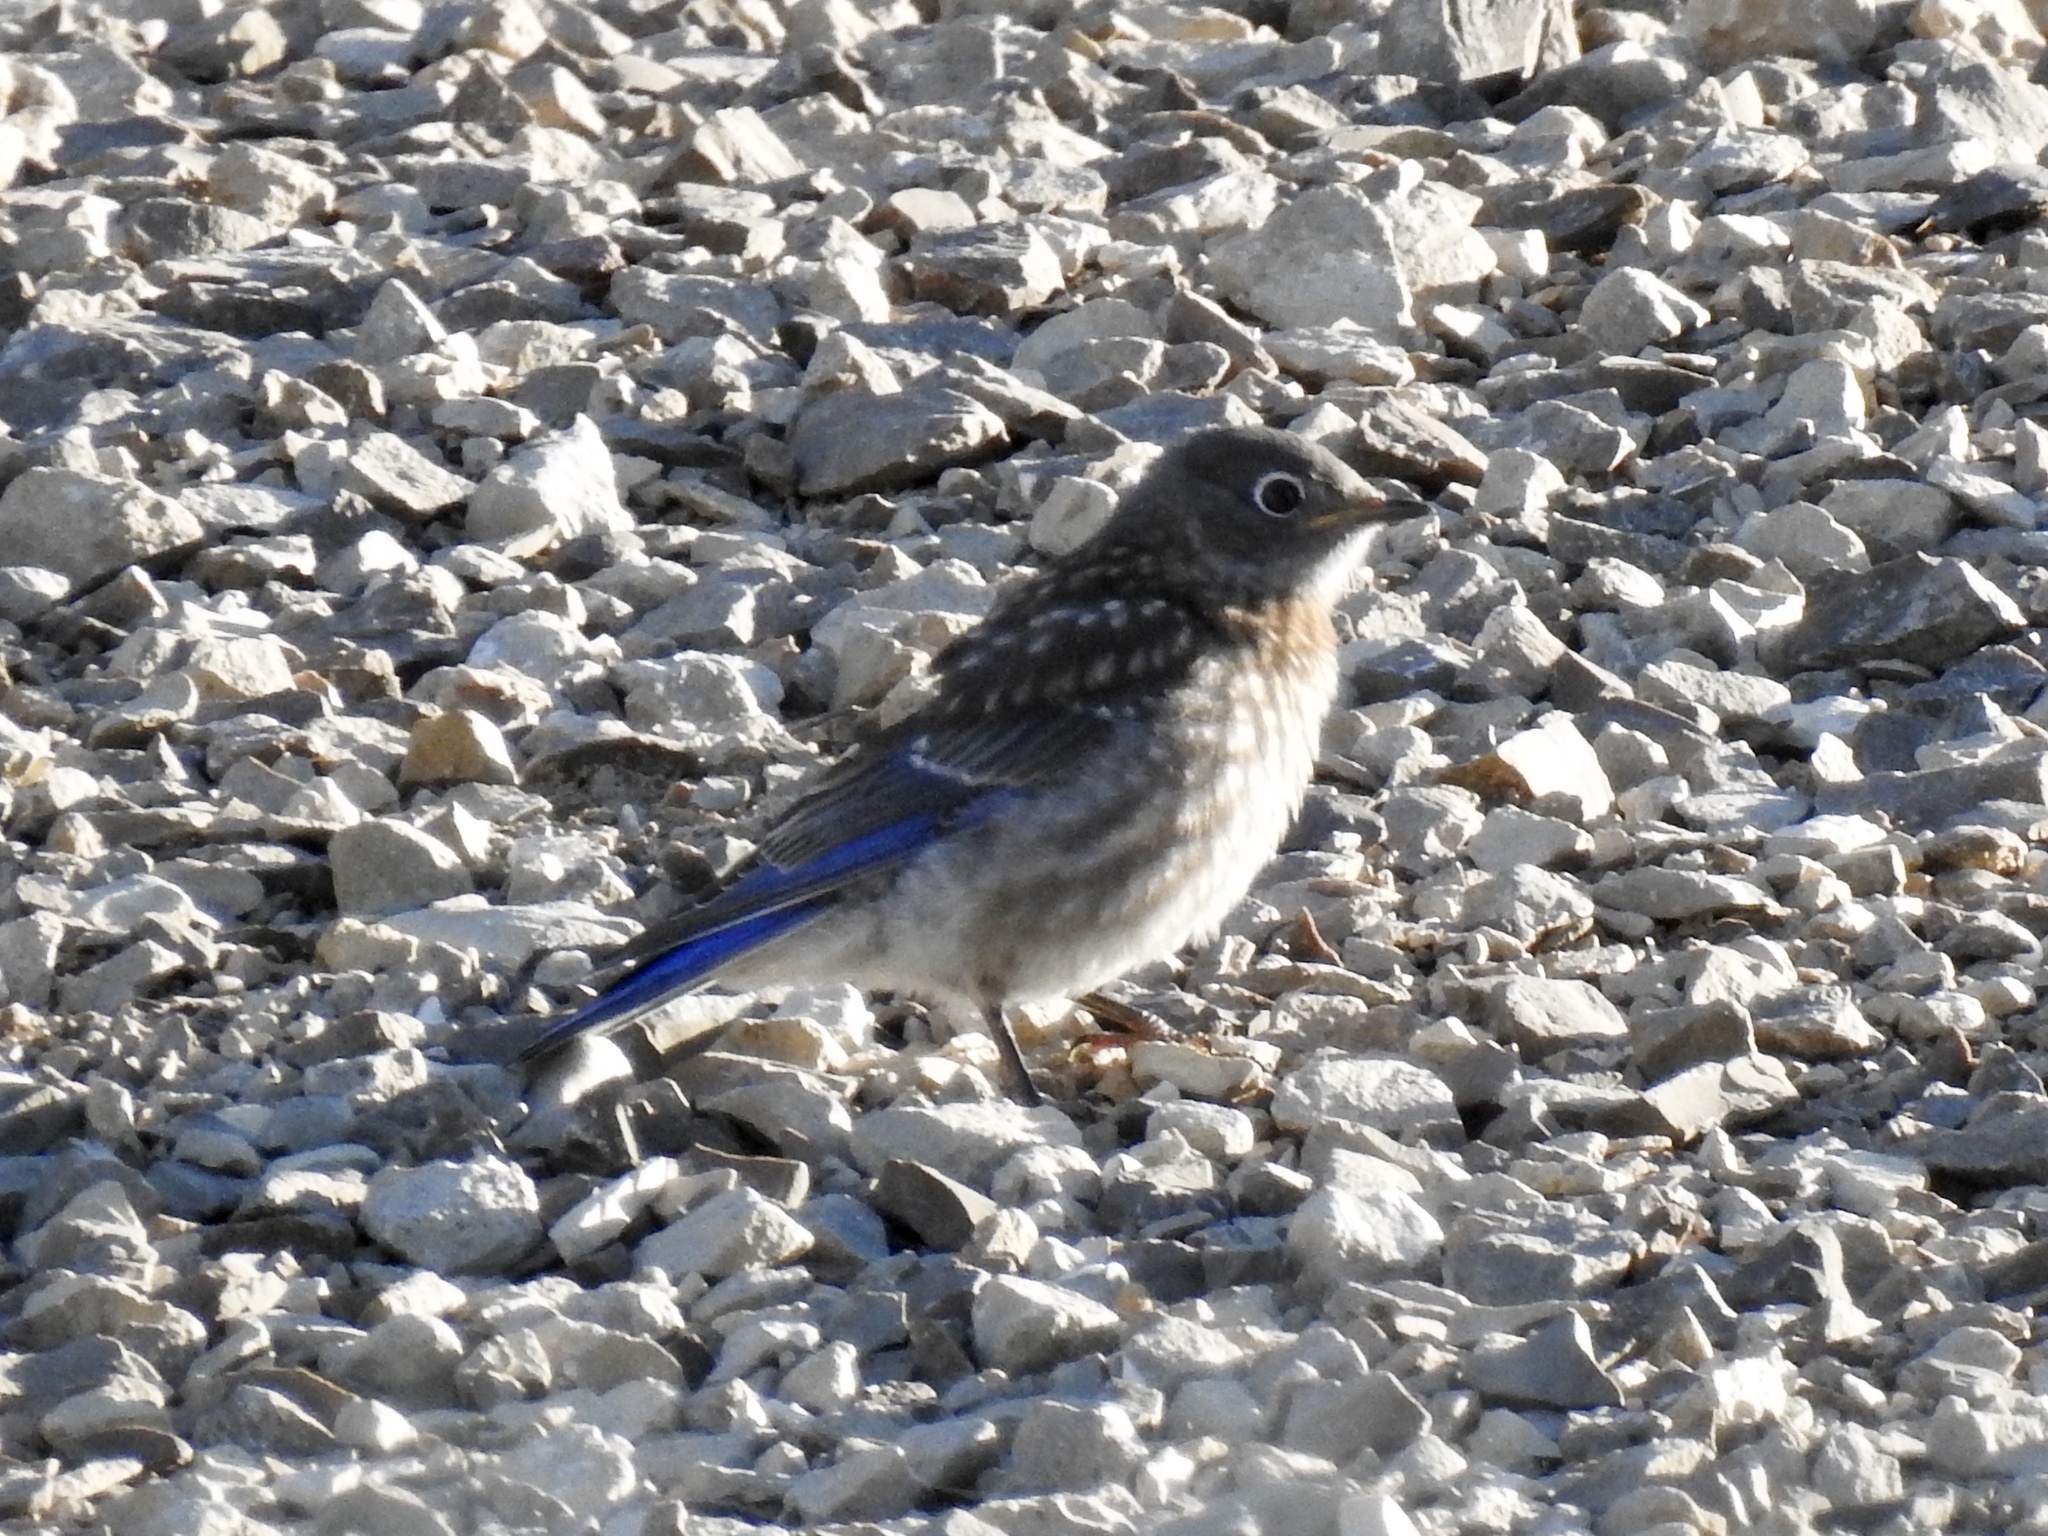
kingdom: Animalia
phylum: Chordata
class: Aves
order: Passeriformes
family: Turdidae
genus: Sialia
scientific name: Sialia mexicana
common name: Western bluebird
